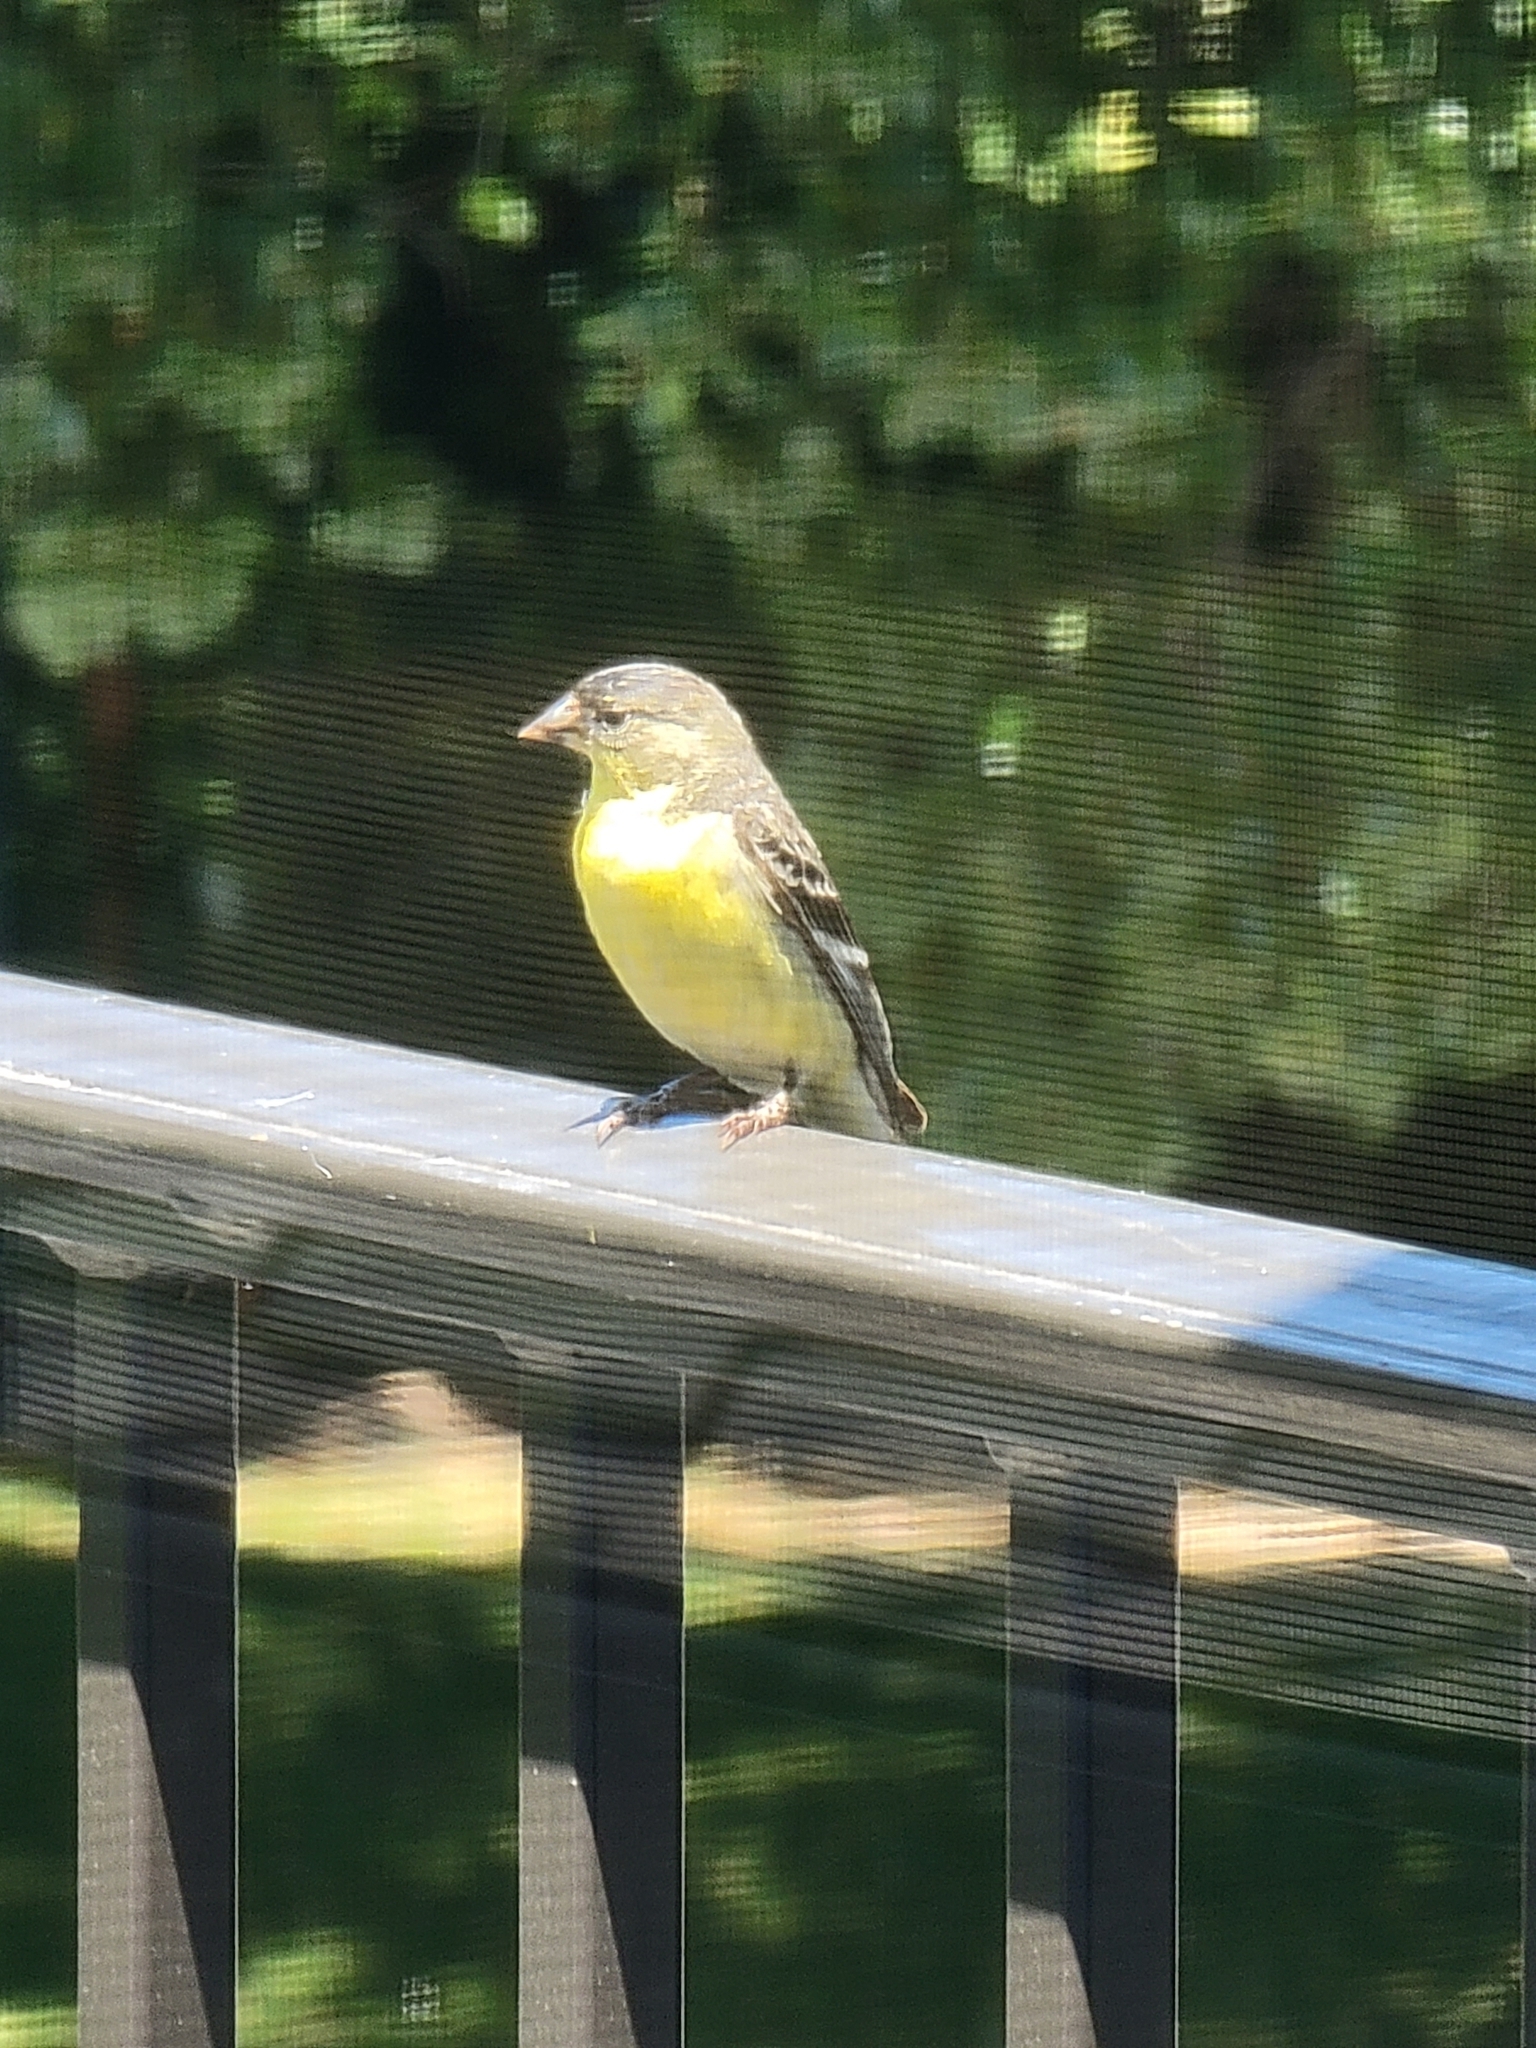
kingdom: Animalia
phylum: Chordata
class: Aves
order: Passeriformes
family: Fringillidae
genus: Spinus
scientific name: Spinus psaltria
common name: Lesser goldfinch
